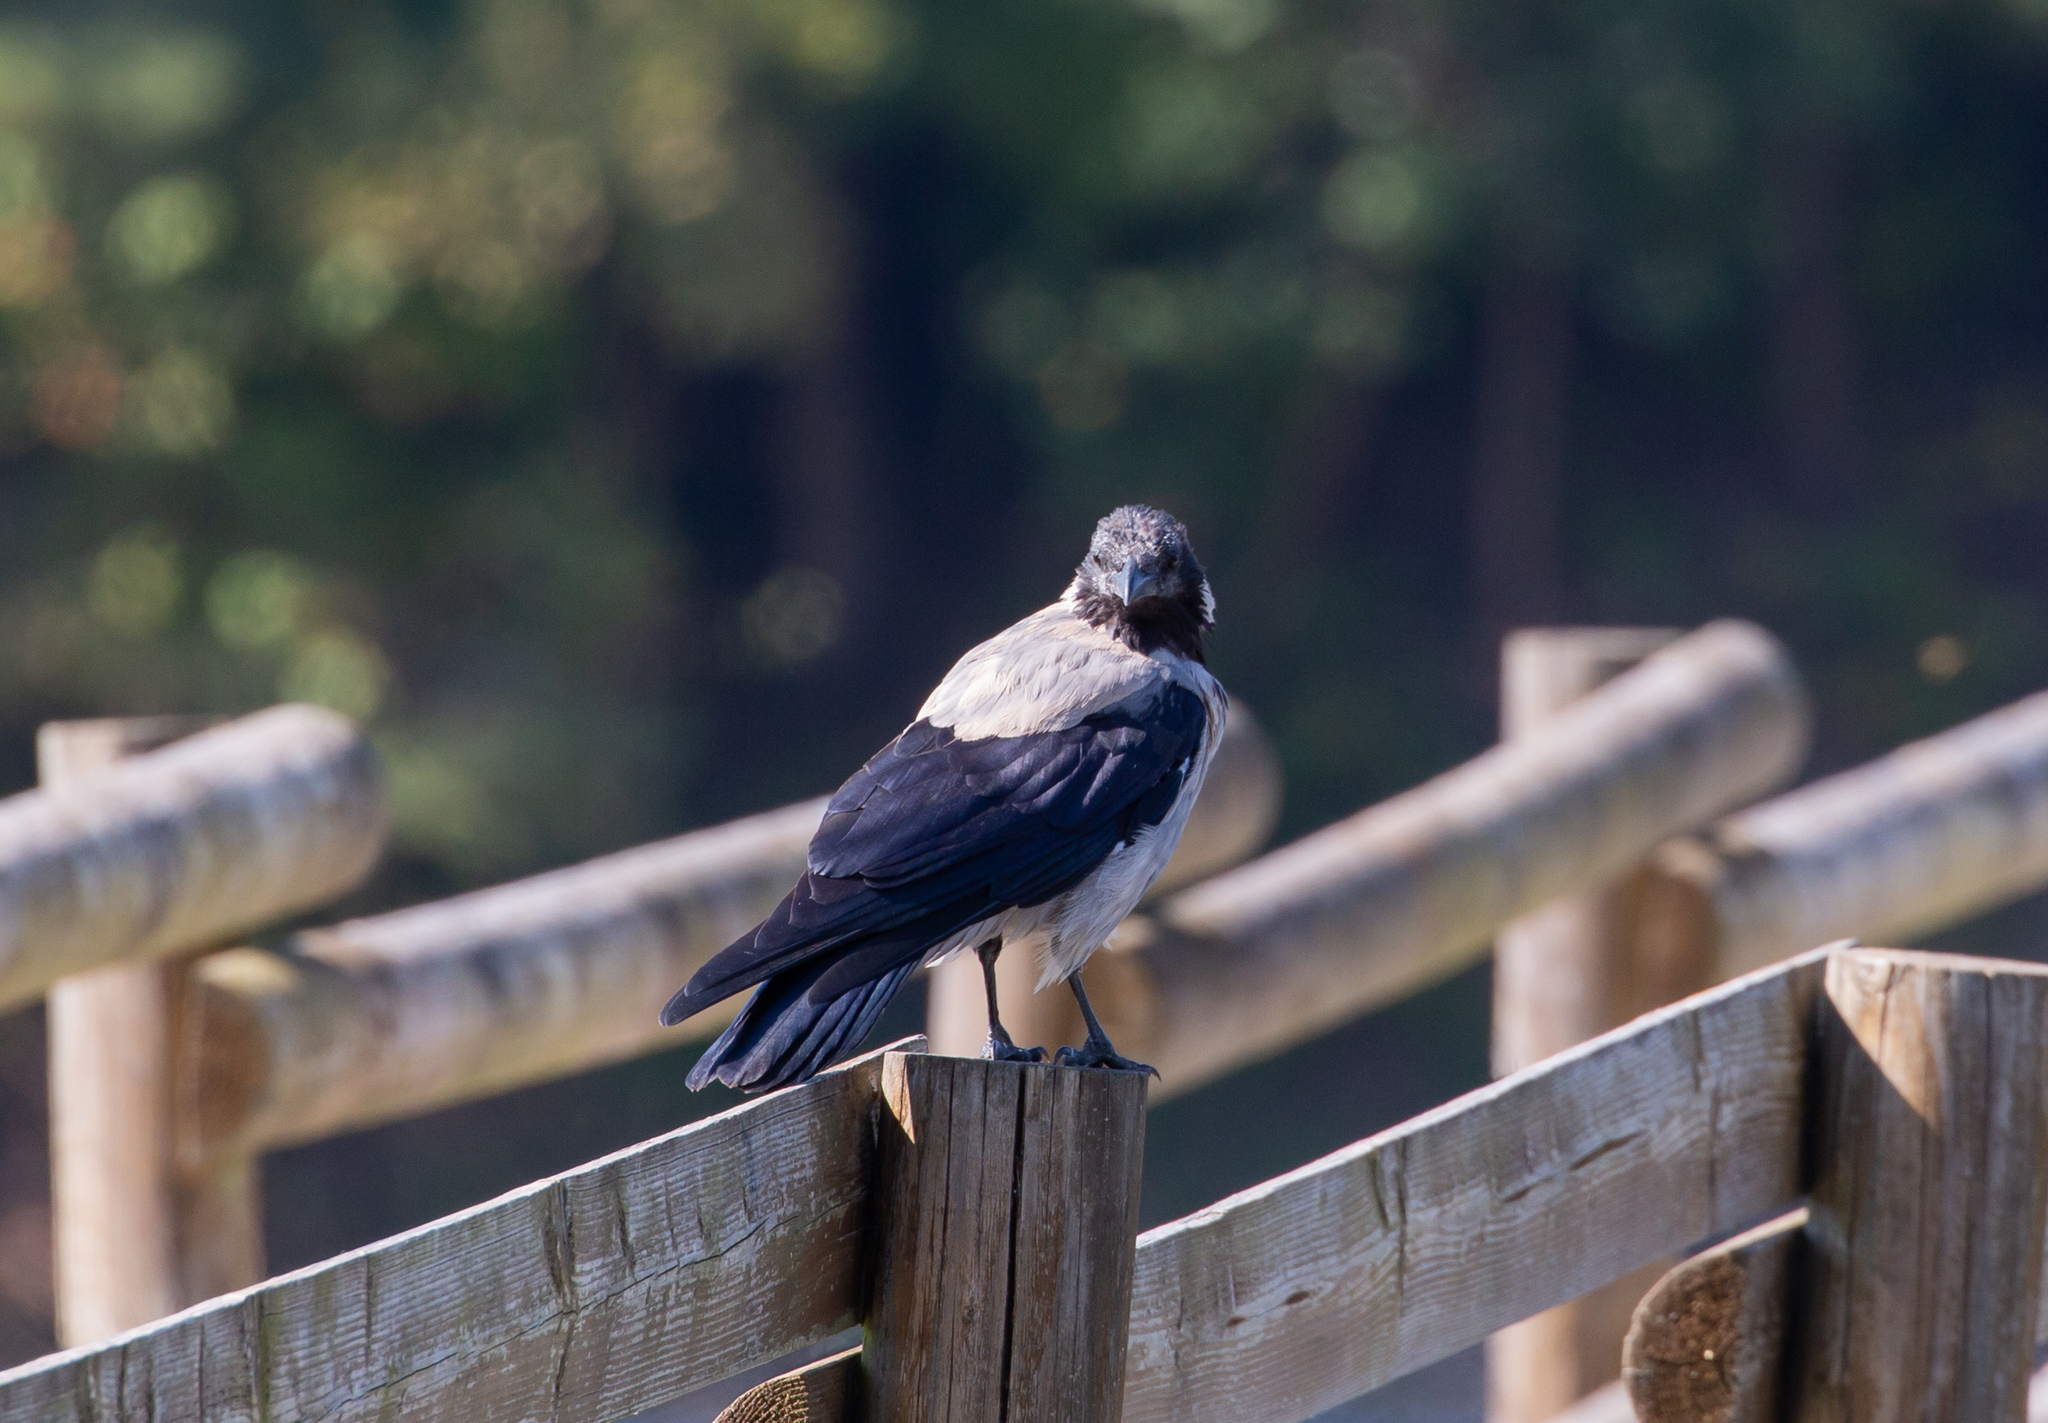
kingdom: Animalia
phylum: Chordata
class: Aves
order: Passeriformes
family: Corvidae
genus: Corvus
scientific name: Corvus cornix
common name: Hooded crow
